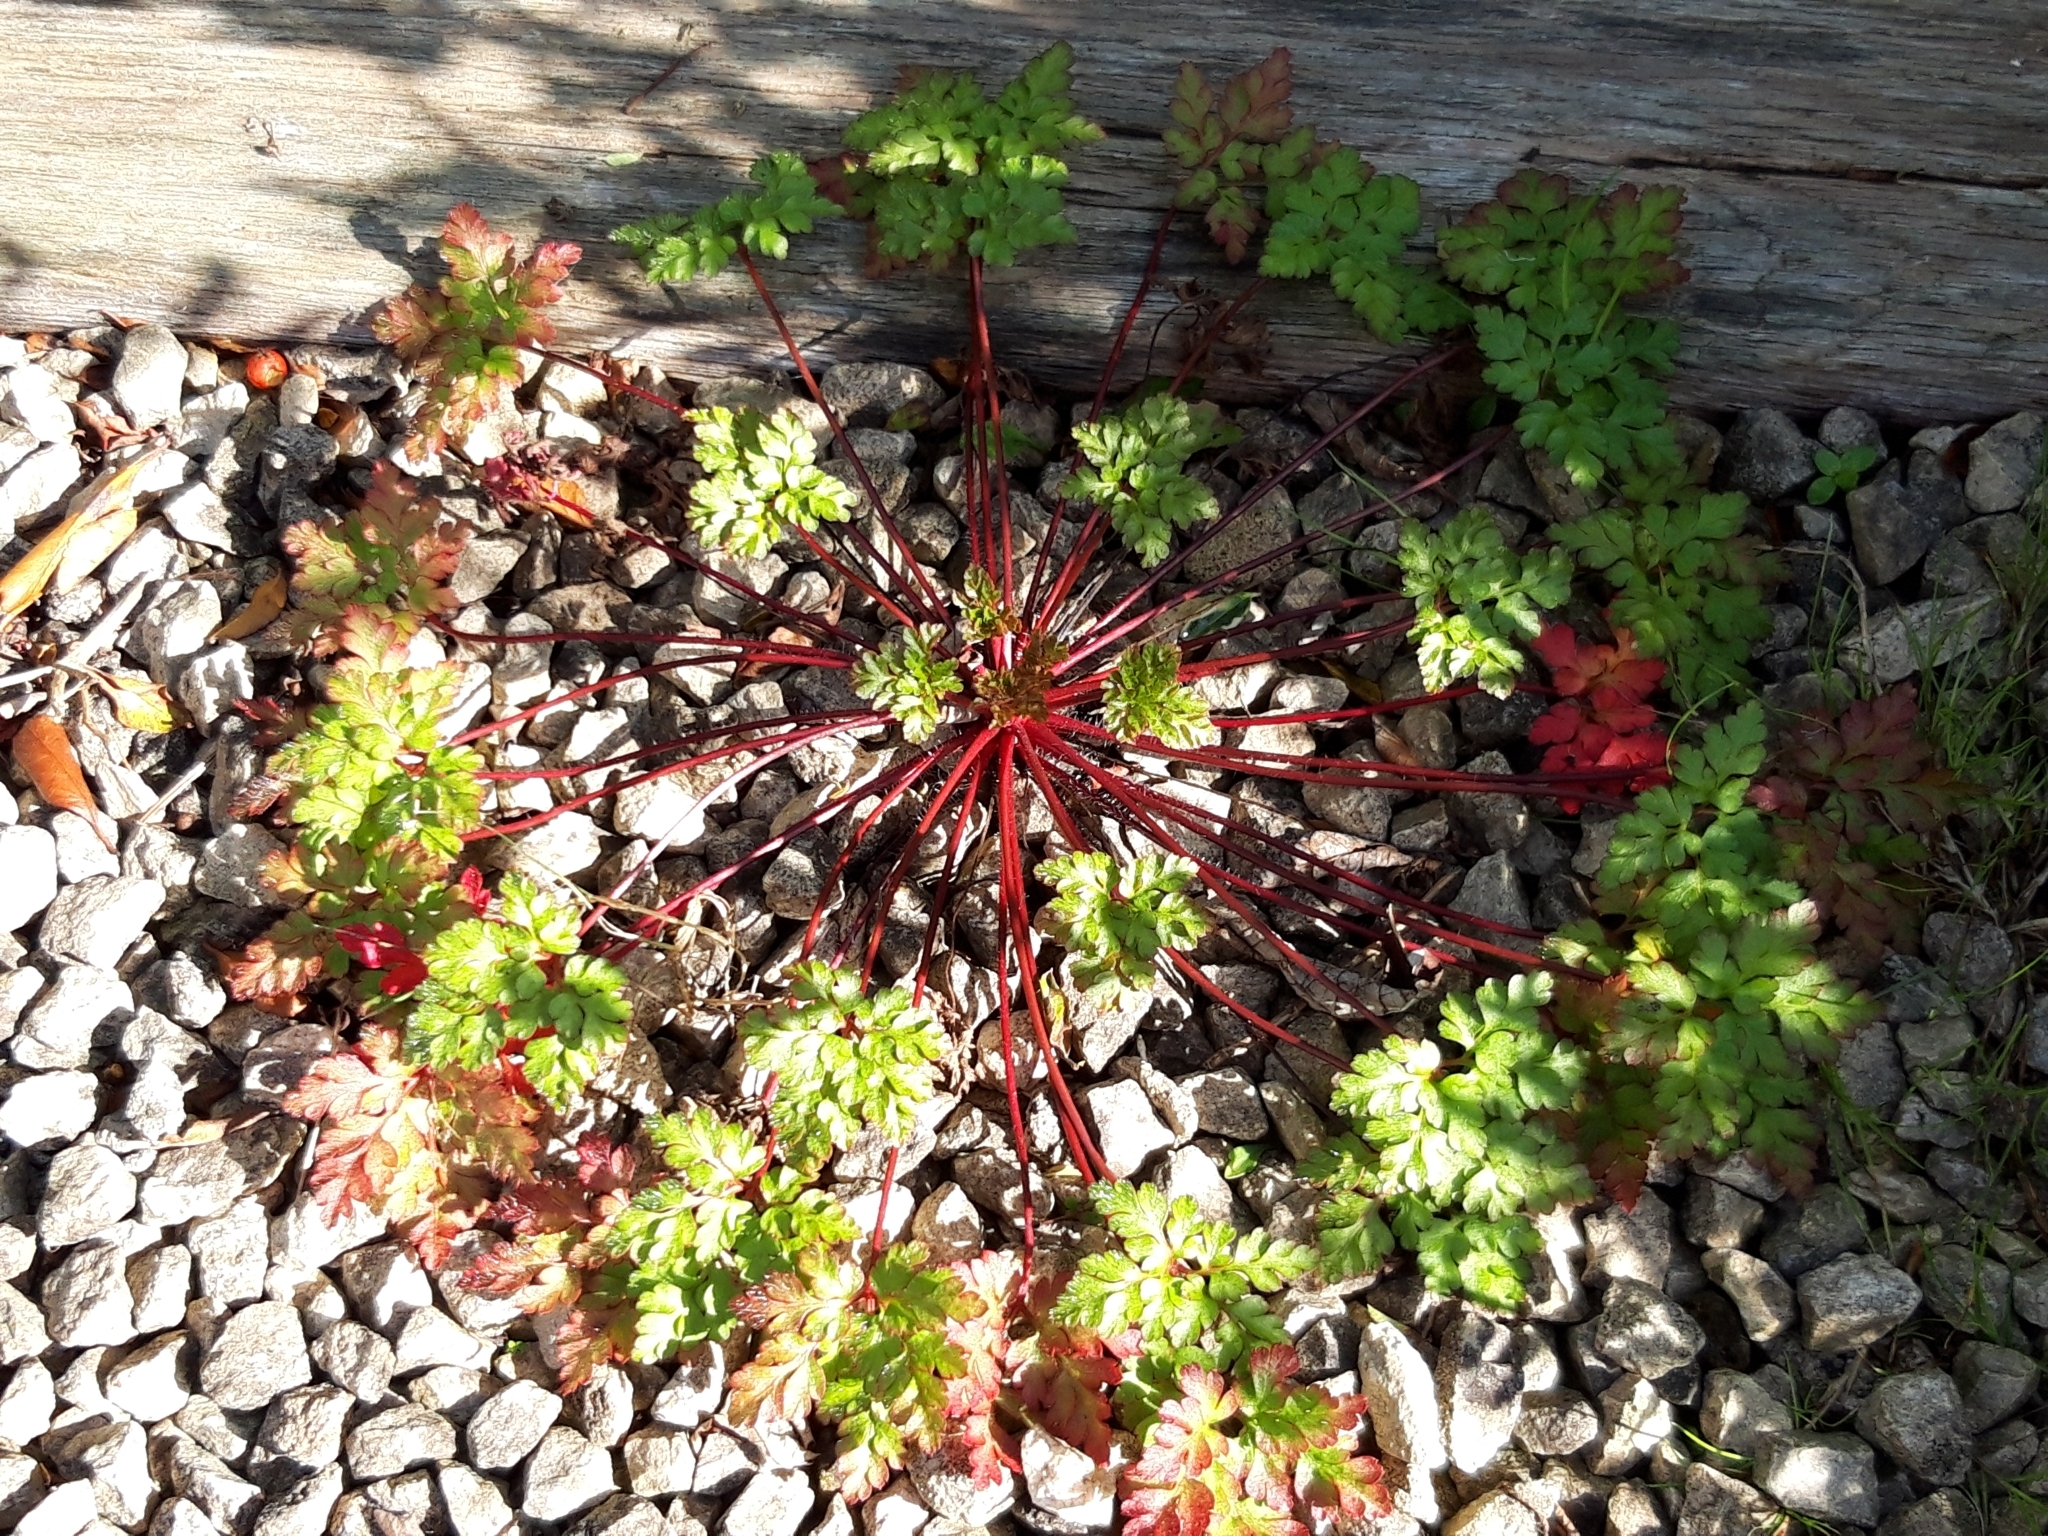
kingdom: Plantae
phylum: Tracheophyta
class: Magnoliopsida
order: Geraniales
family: Geraniaceae
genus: Geranium
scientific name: Geranium robertianum
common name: Herb-robert
